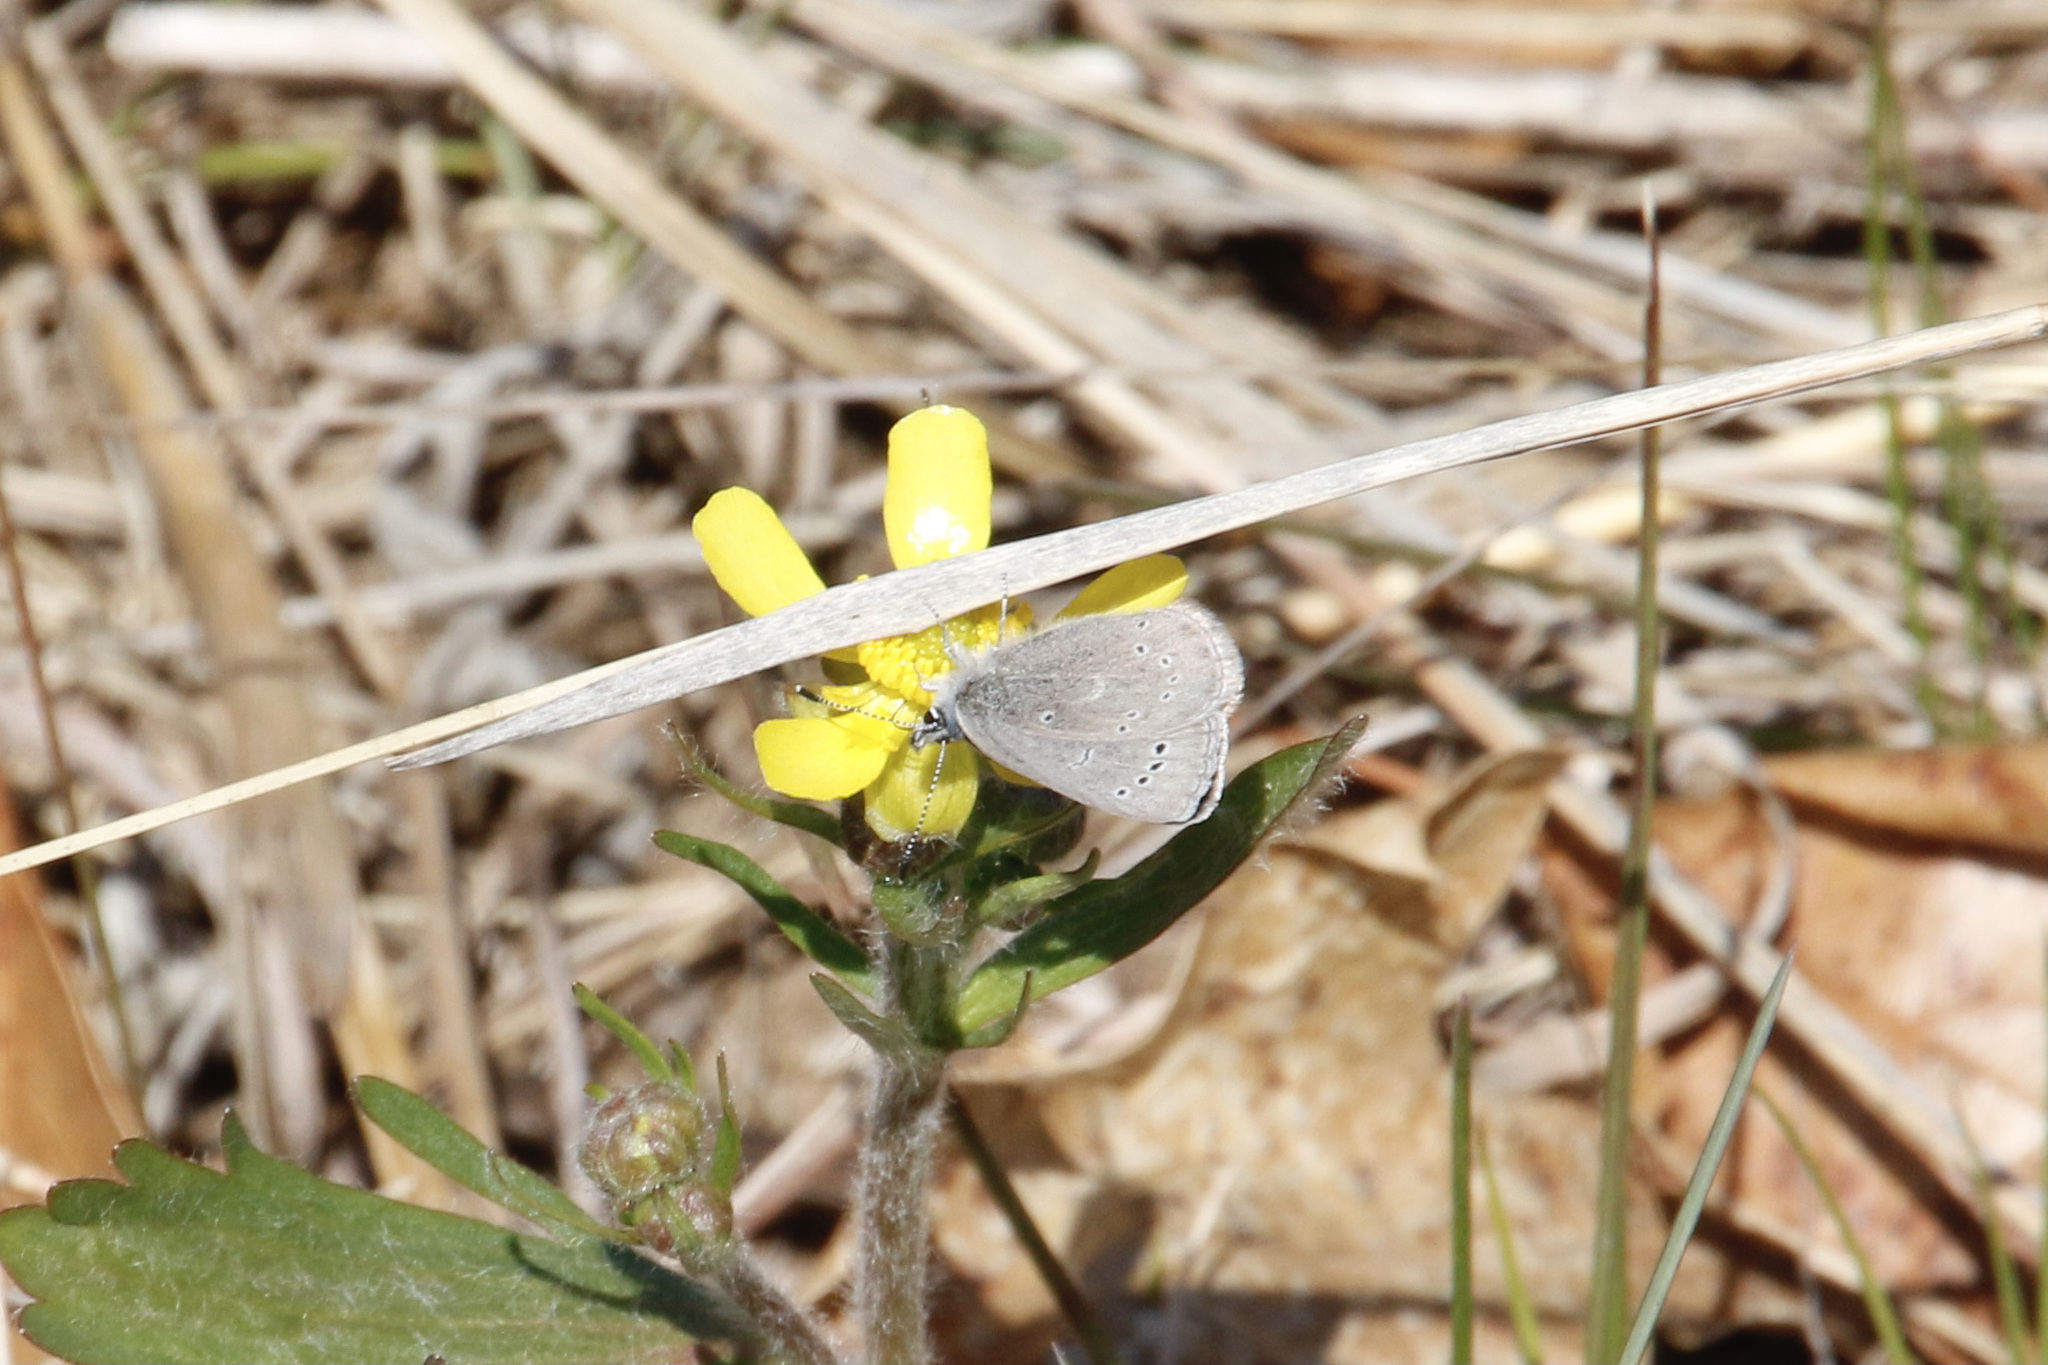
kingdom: Animalia
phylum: Arthropoda
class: Insecta
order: Lepidoptera
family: Lycaenidae
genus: Glaucopsyche
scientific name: Glaucopsyche lygdamus
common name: Silvery blue
